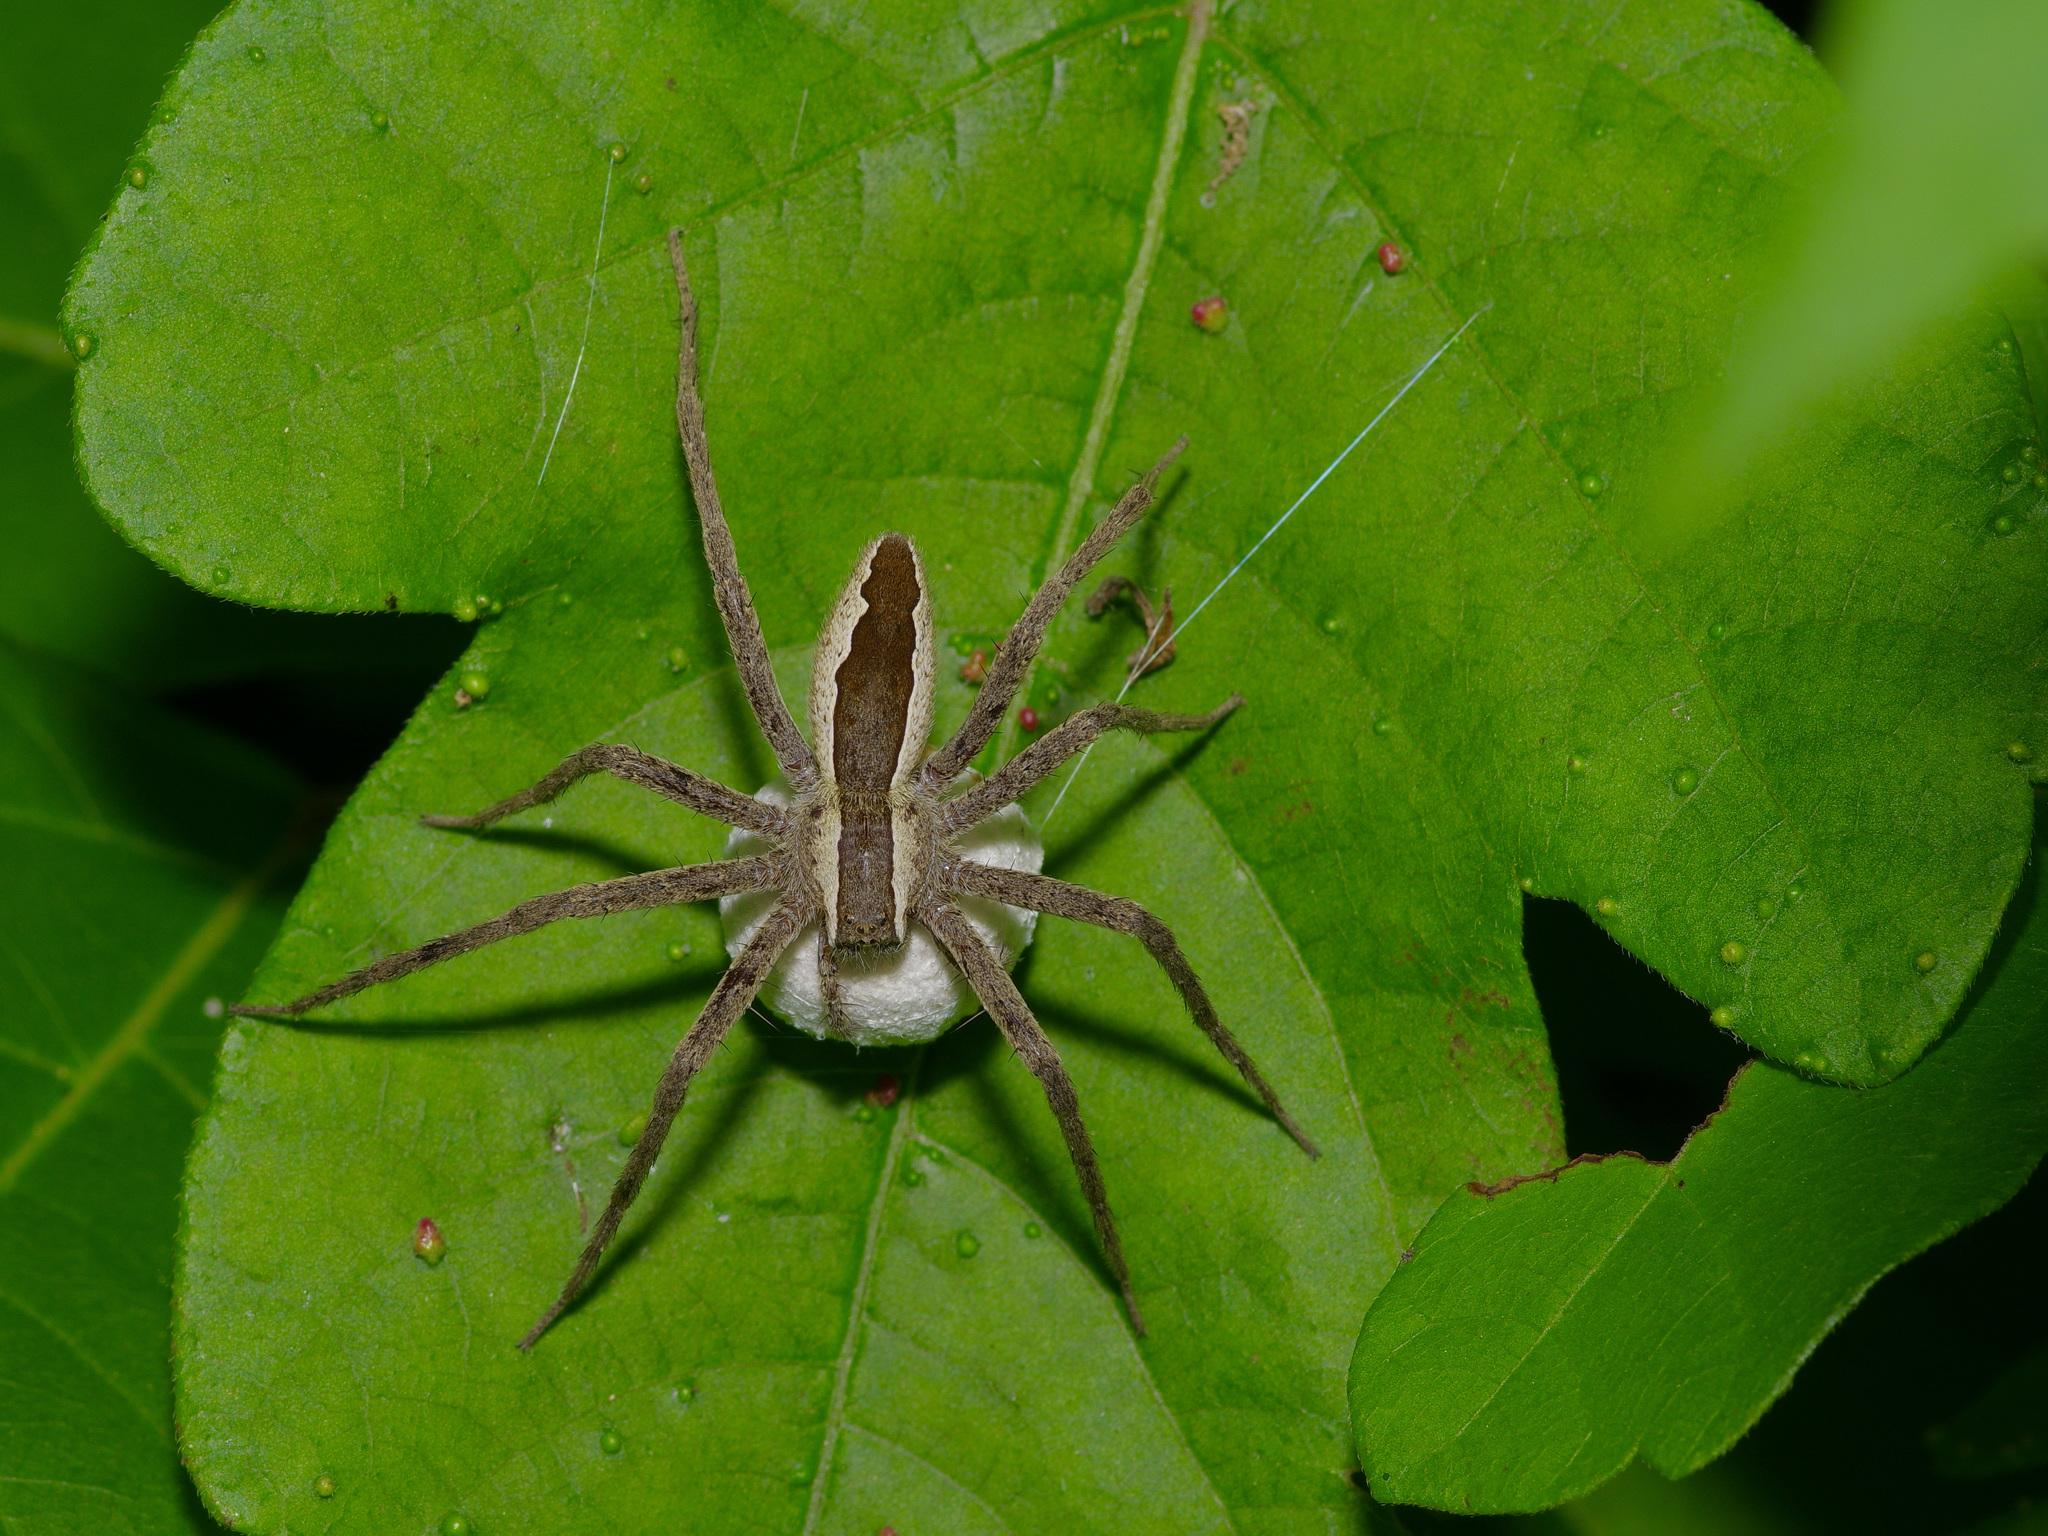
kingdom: Animalia
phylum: Arthropoda
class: Arachnida
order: Araneae
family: Pisauridae
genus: Pisaurina
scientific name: Pisaurina mira
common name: American nursery web spider
